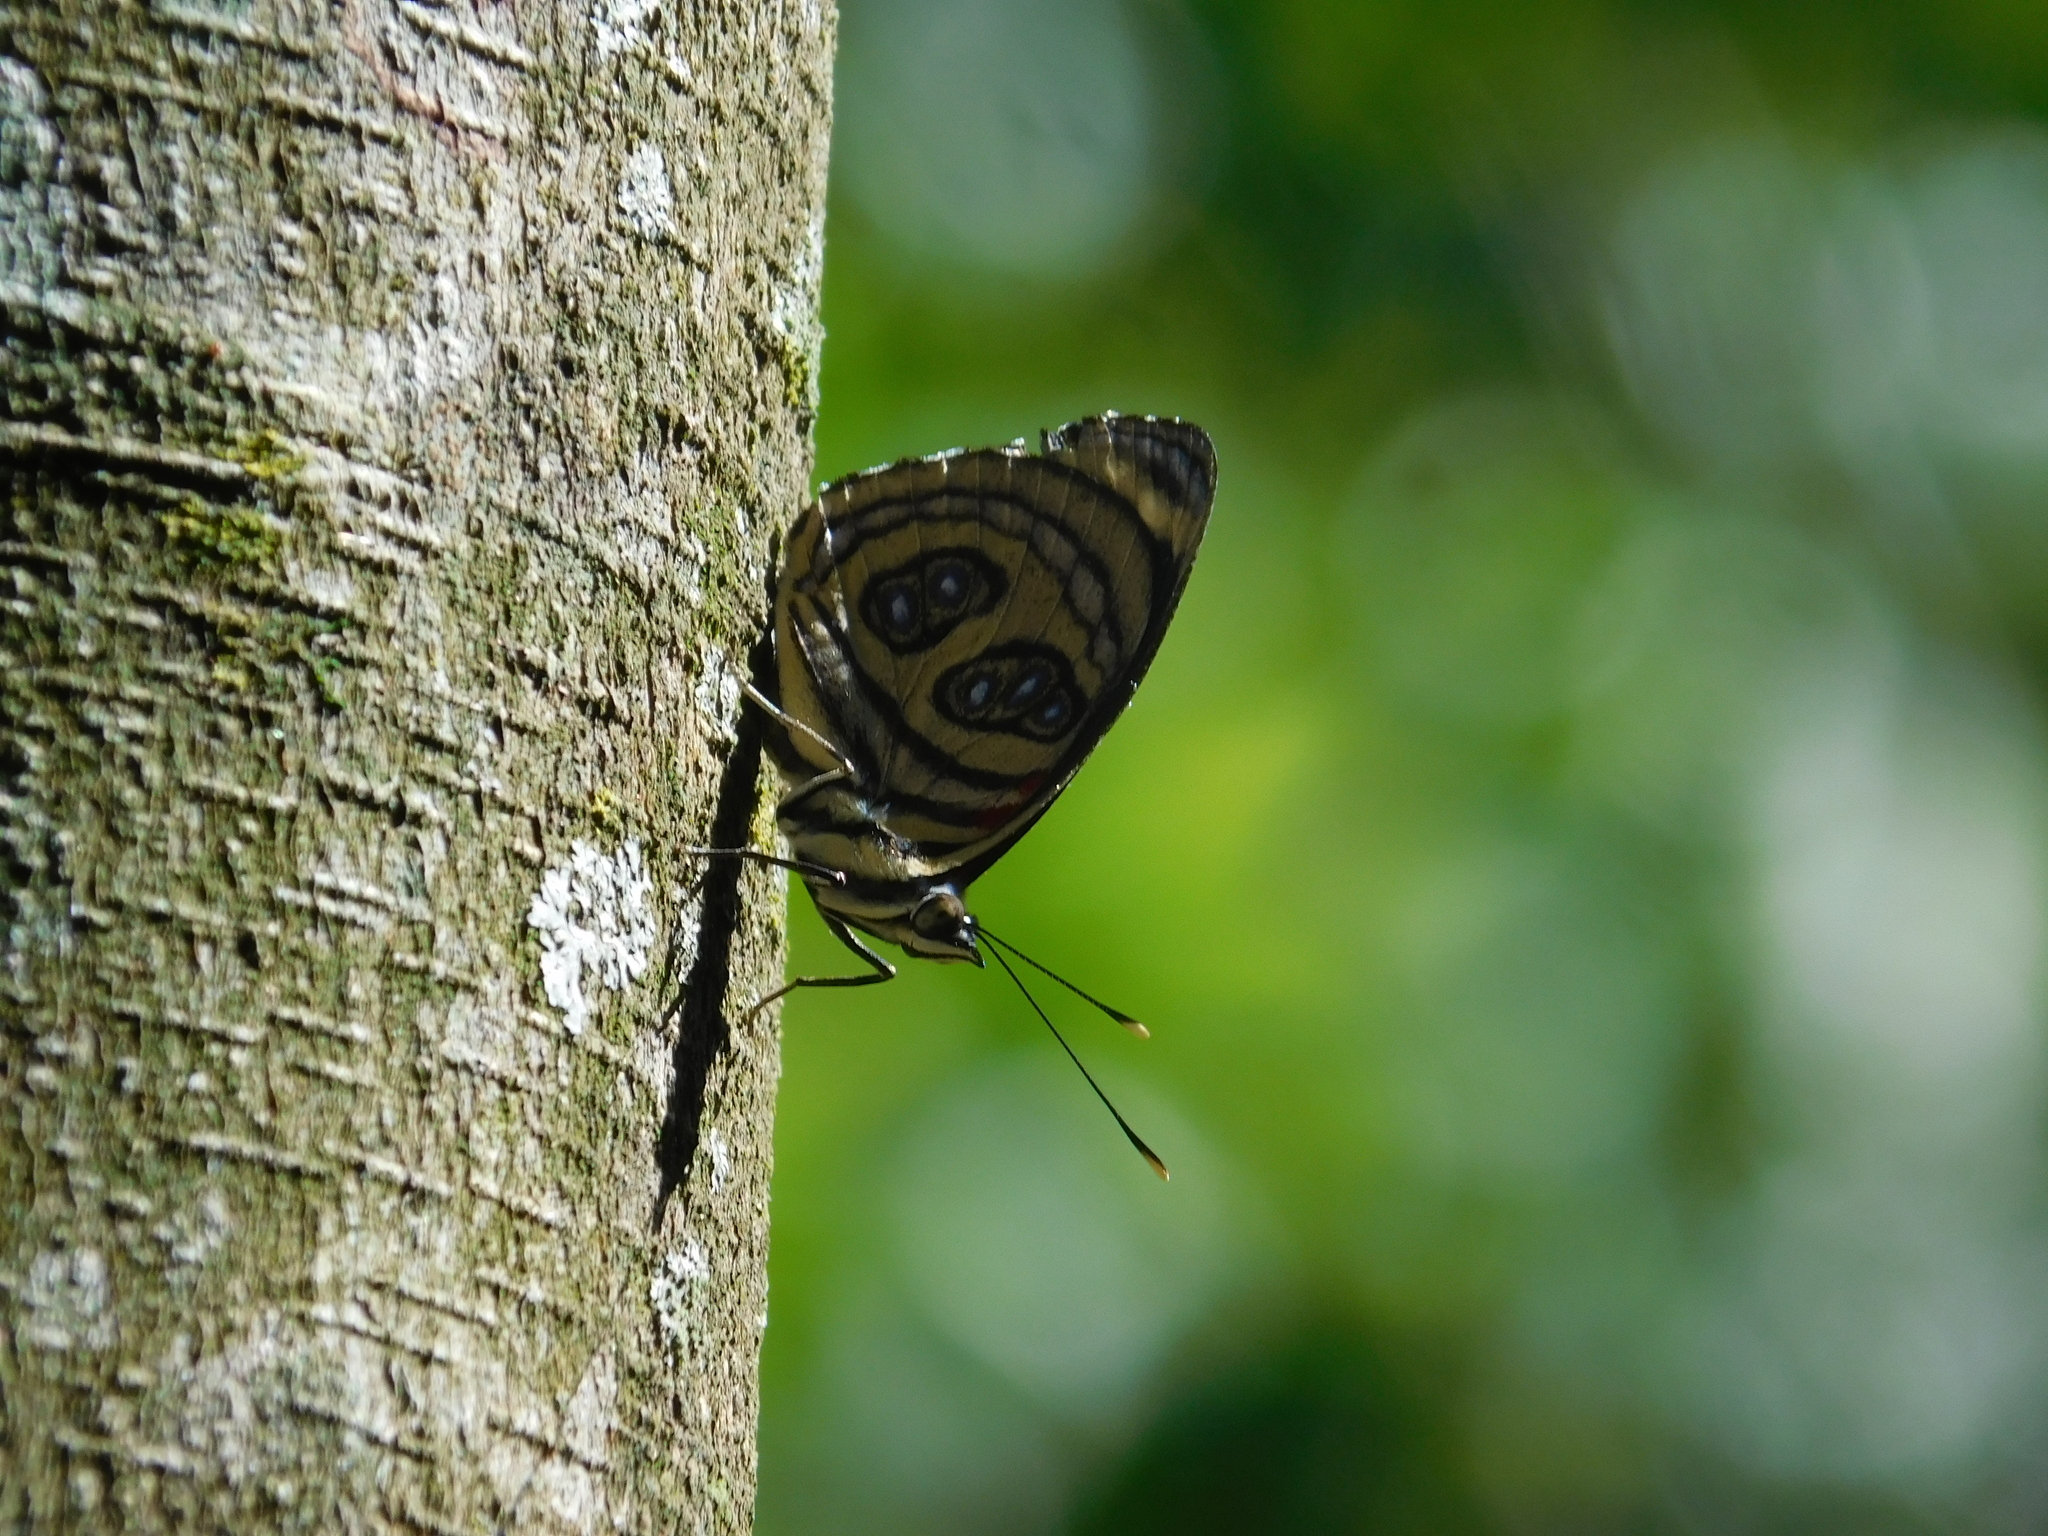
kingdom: Animalia
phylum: Arthropoda
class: Insecta
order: Lepidoptera
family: Nymphalidae
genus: Catagramma
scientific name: Catagramma pygas
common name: Godart's numberwing
